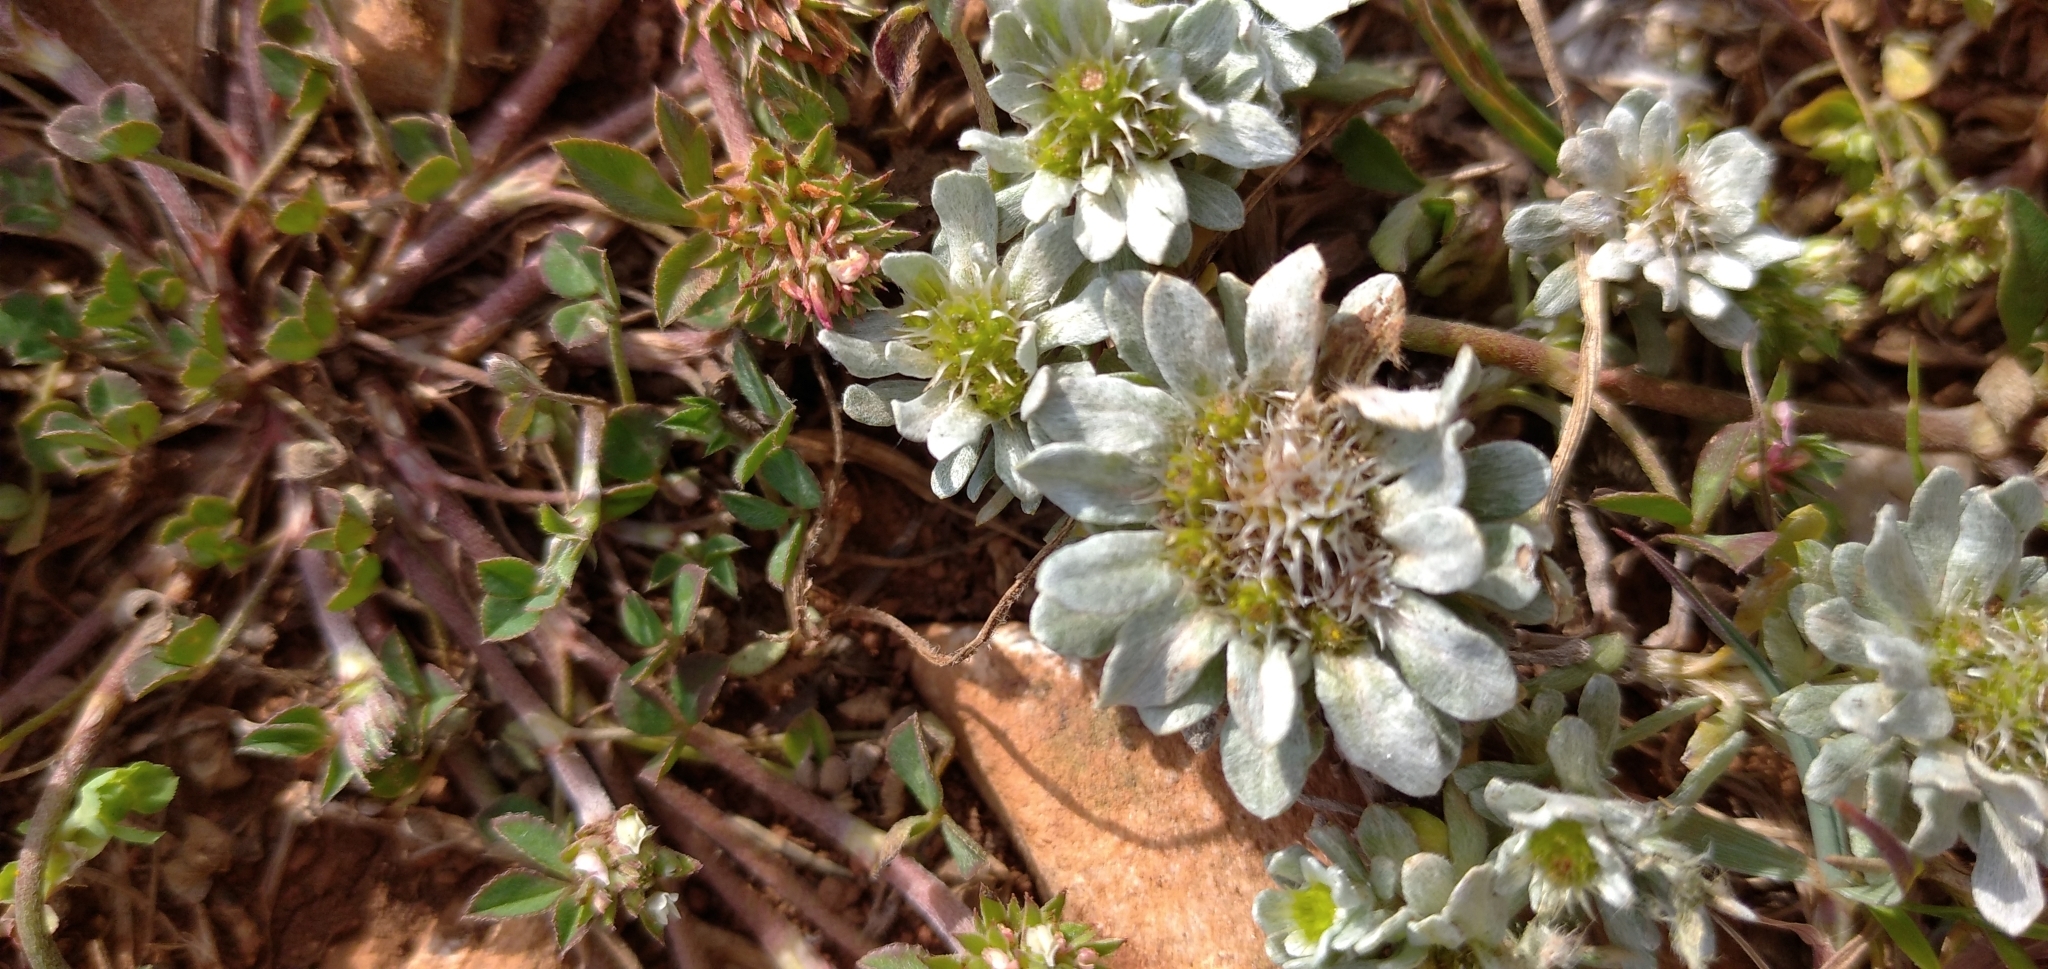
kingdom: Plantae
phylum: Tracheophyta
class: Magnoliopsida
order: Asterales
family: Asteraceae
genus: Filago
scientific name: Filago pygmaea
